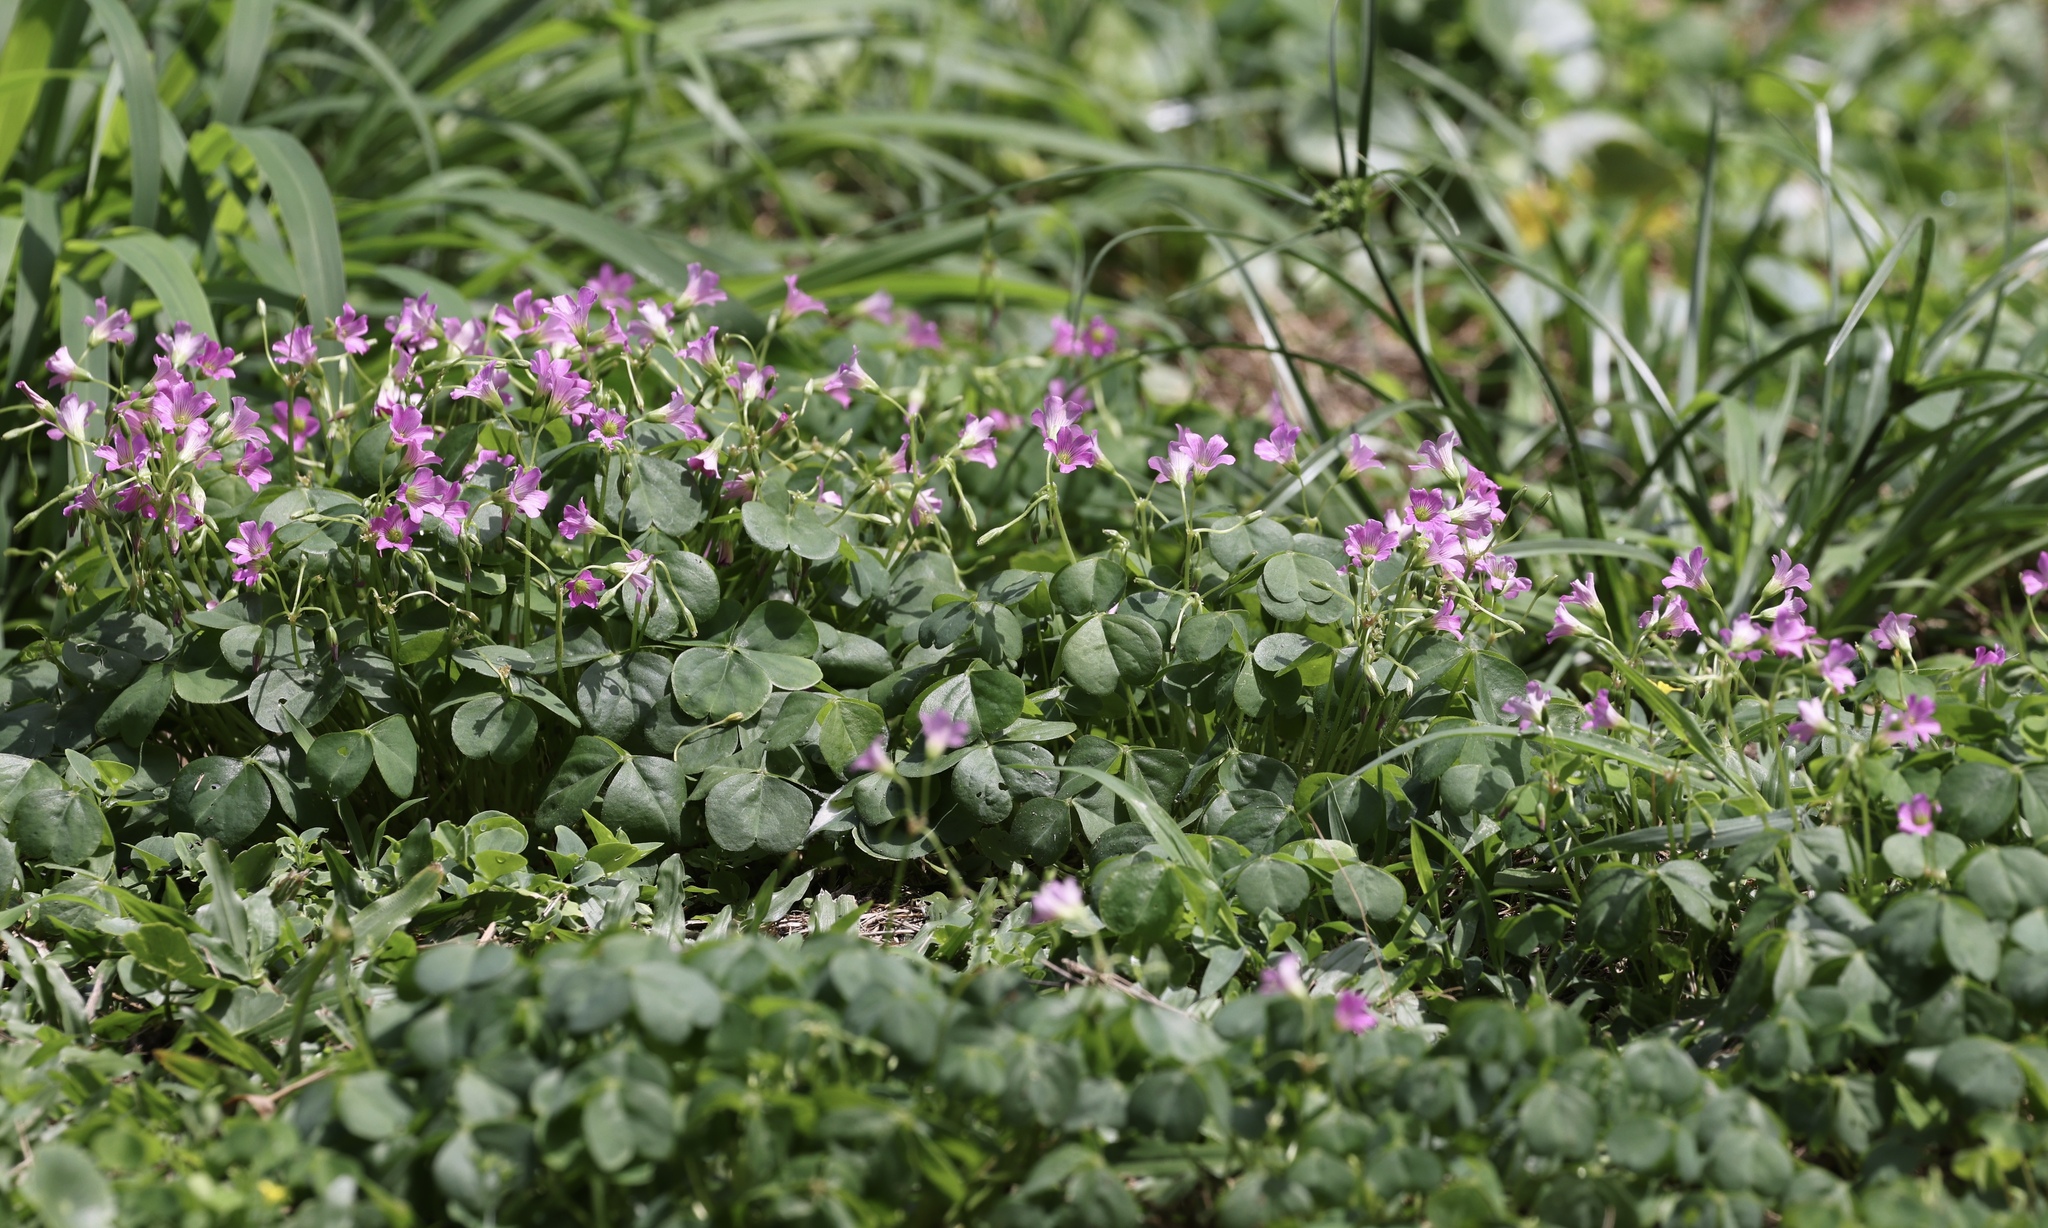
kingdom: Plantae
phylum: Tracheophyta
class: Magnoliopsida
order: Oxalidales
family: Oxalidaceae
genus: Oxalis
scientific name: Oxalis debilis
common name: Large-flowered pink-sorrel
